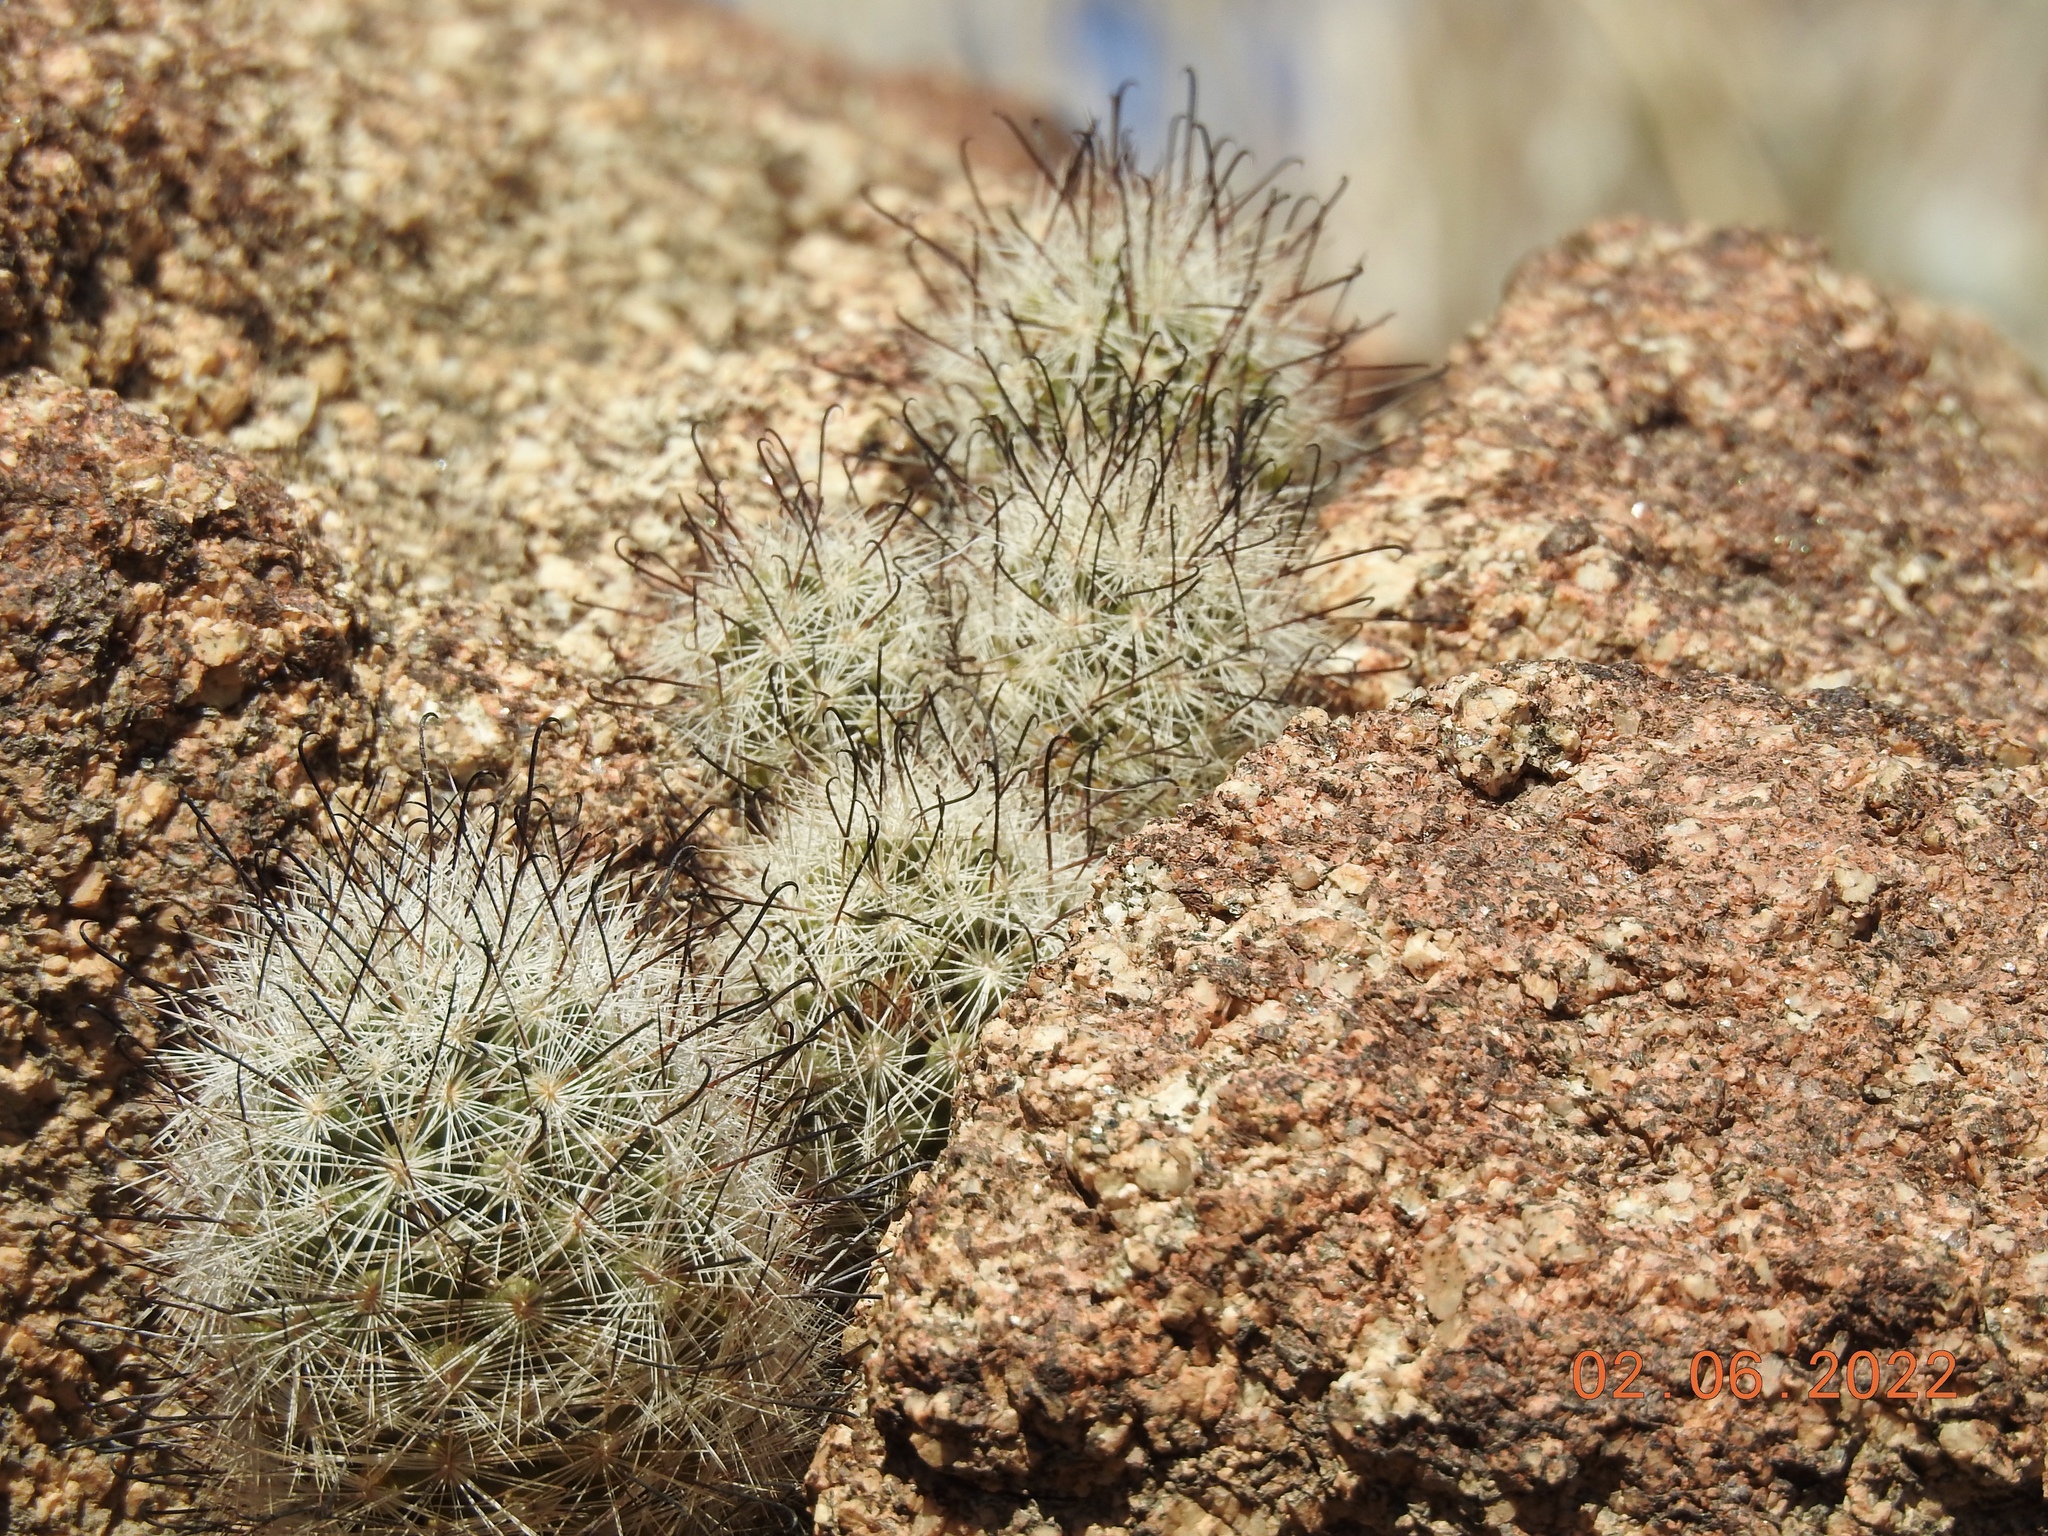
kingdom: Plantae
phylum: Tracheophyta
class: Magnoliopsida
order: Caryophyllales
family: Cactaceae
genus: Cochemiea
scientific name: Cochemiea tetrancistra
